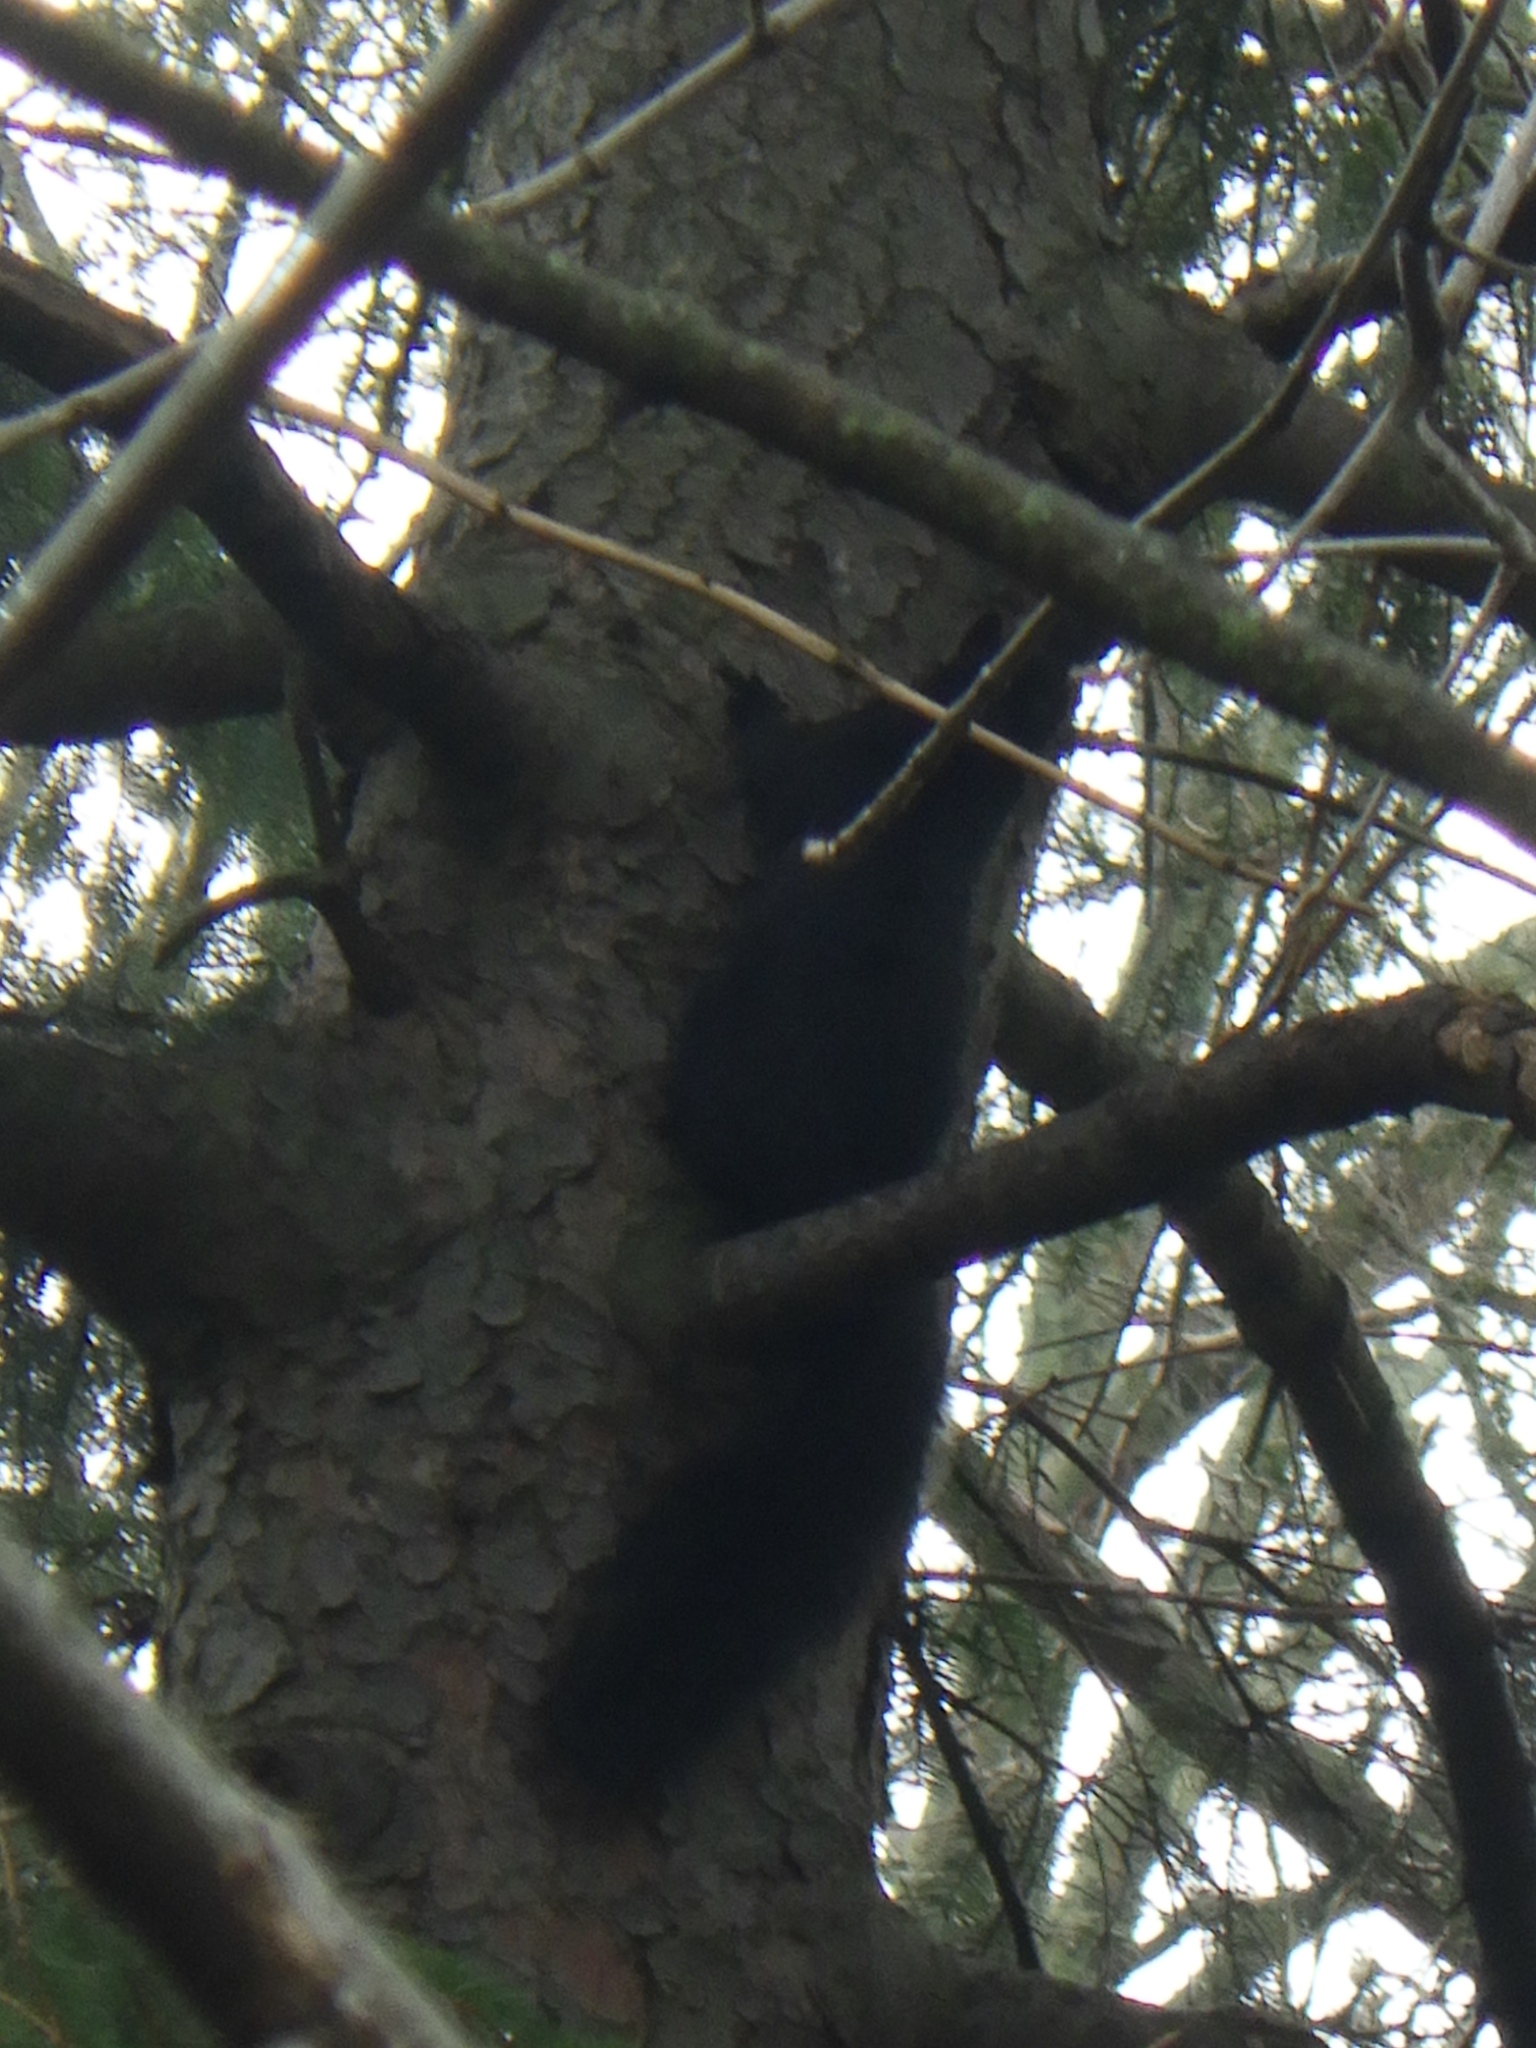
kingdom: Animalia
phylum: Chordata
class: Mammalia
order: Rodentia
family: Sciuridae
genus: Sciurus
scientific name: Sciurus carolinensis
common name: Eastern gray squirrel
